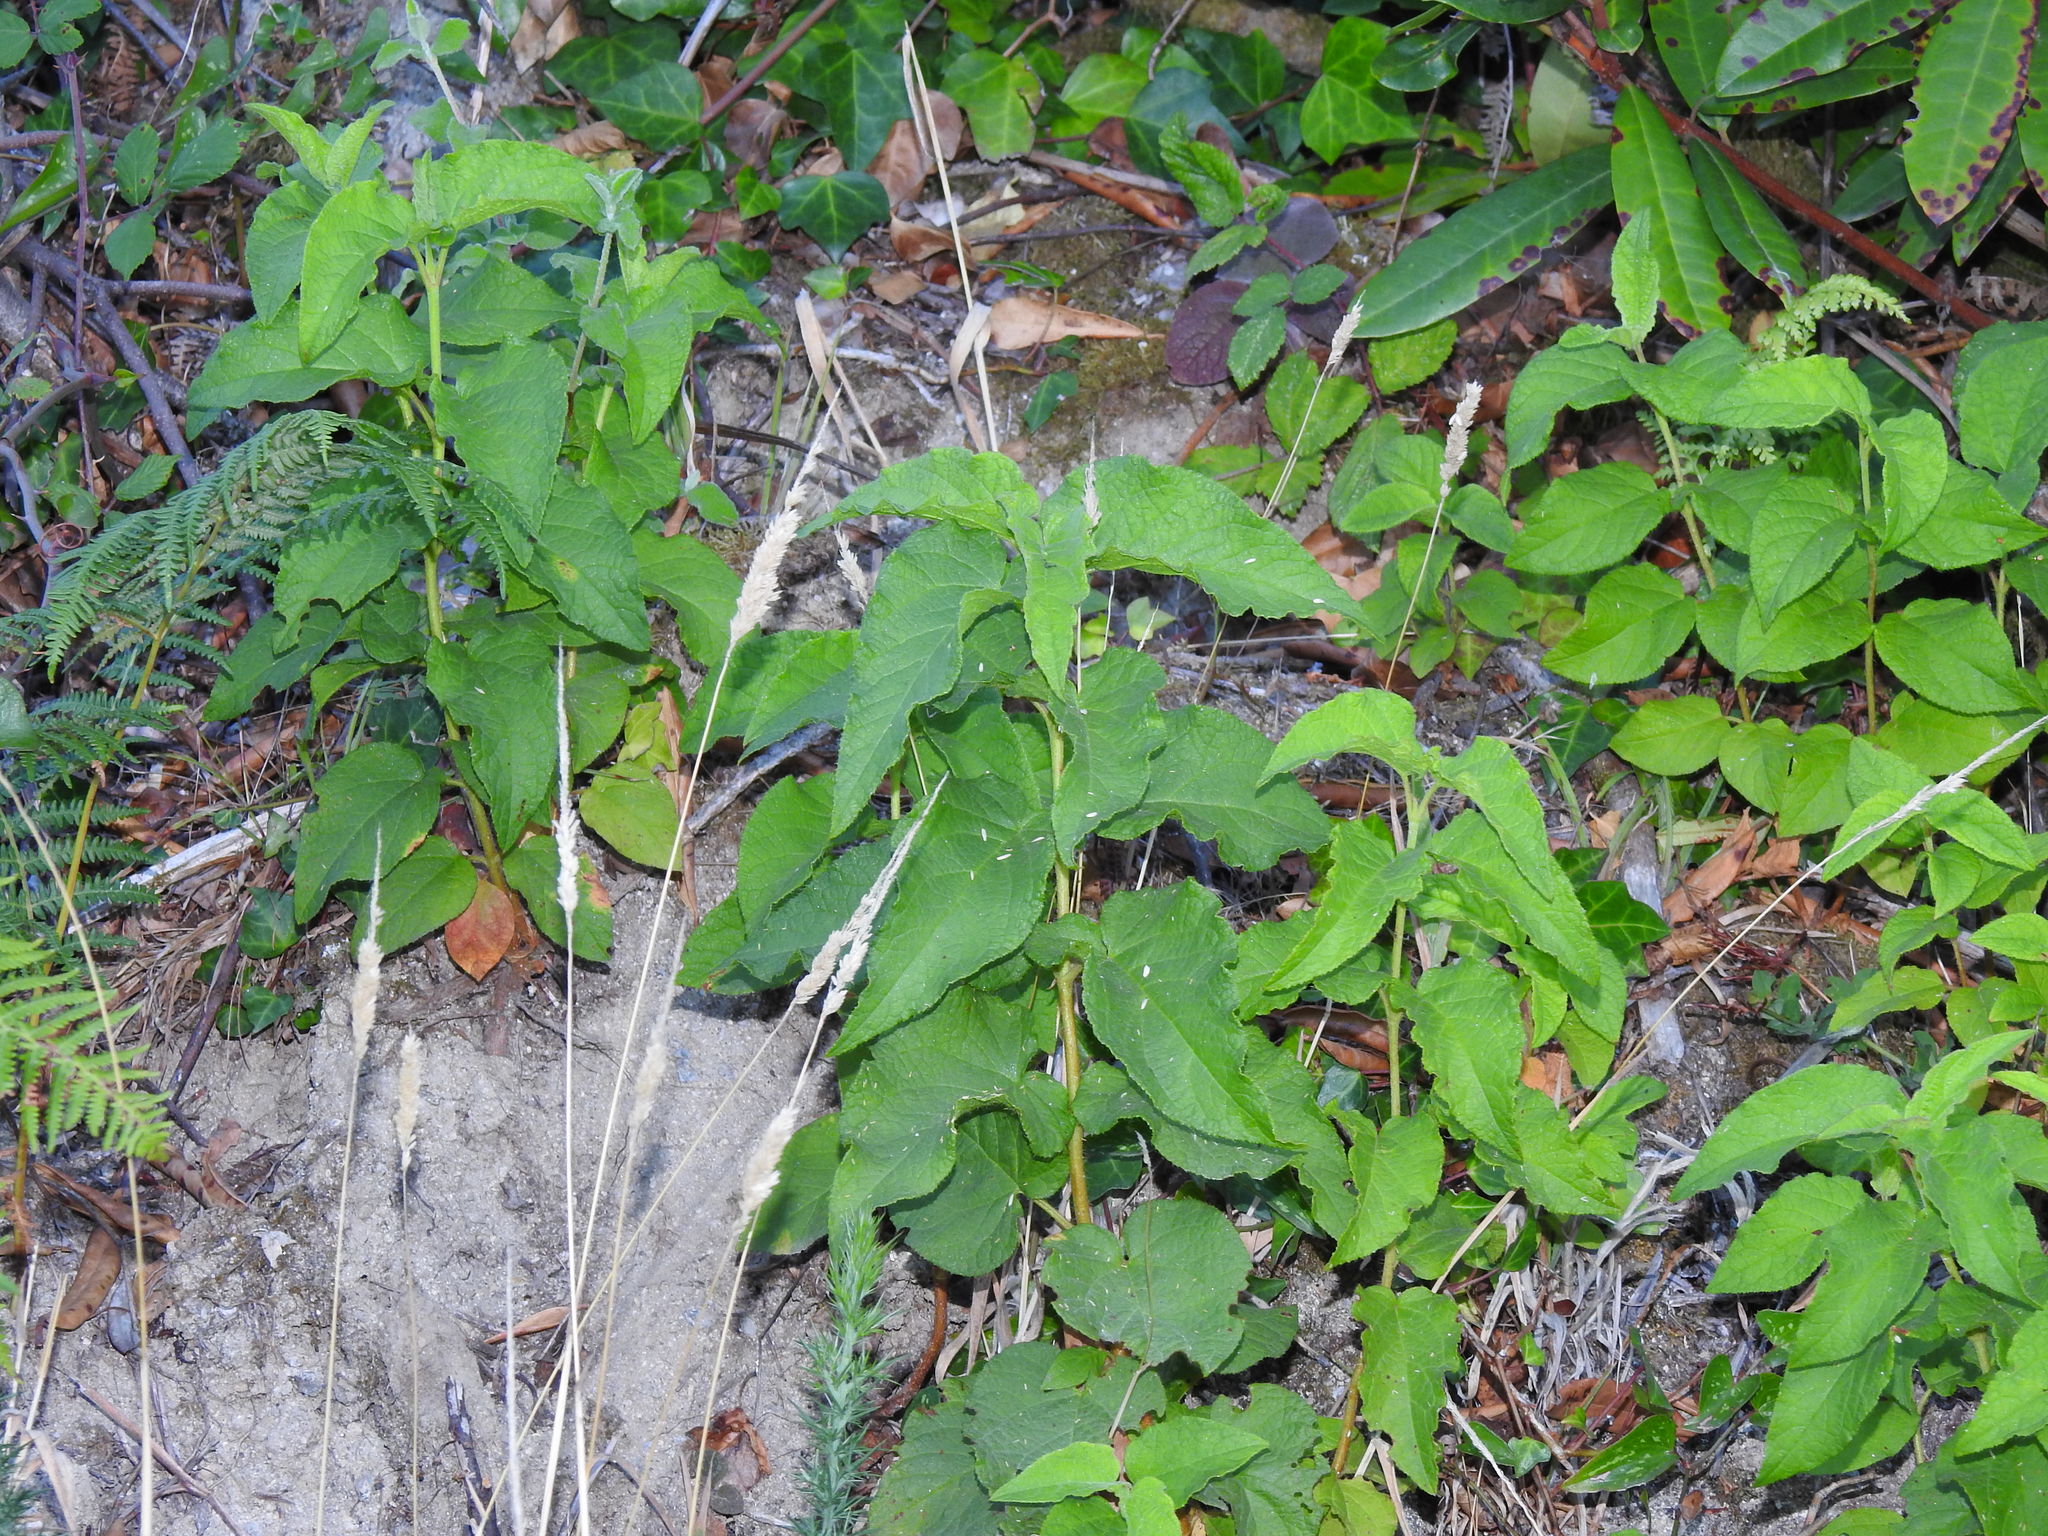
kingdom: Plantae
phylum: Tracheophyta
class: Magnoliopsida
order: Malvales
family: Cistaceae
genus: Cistus
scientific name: Cistus populifolius
